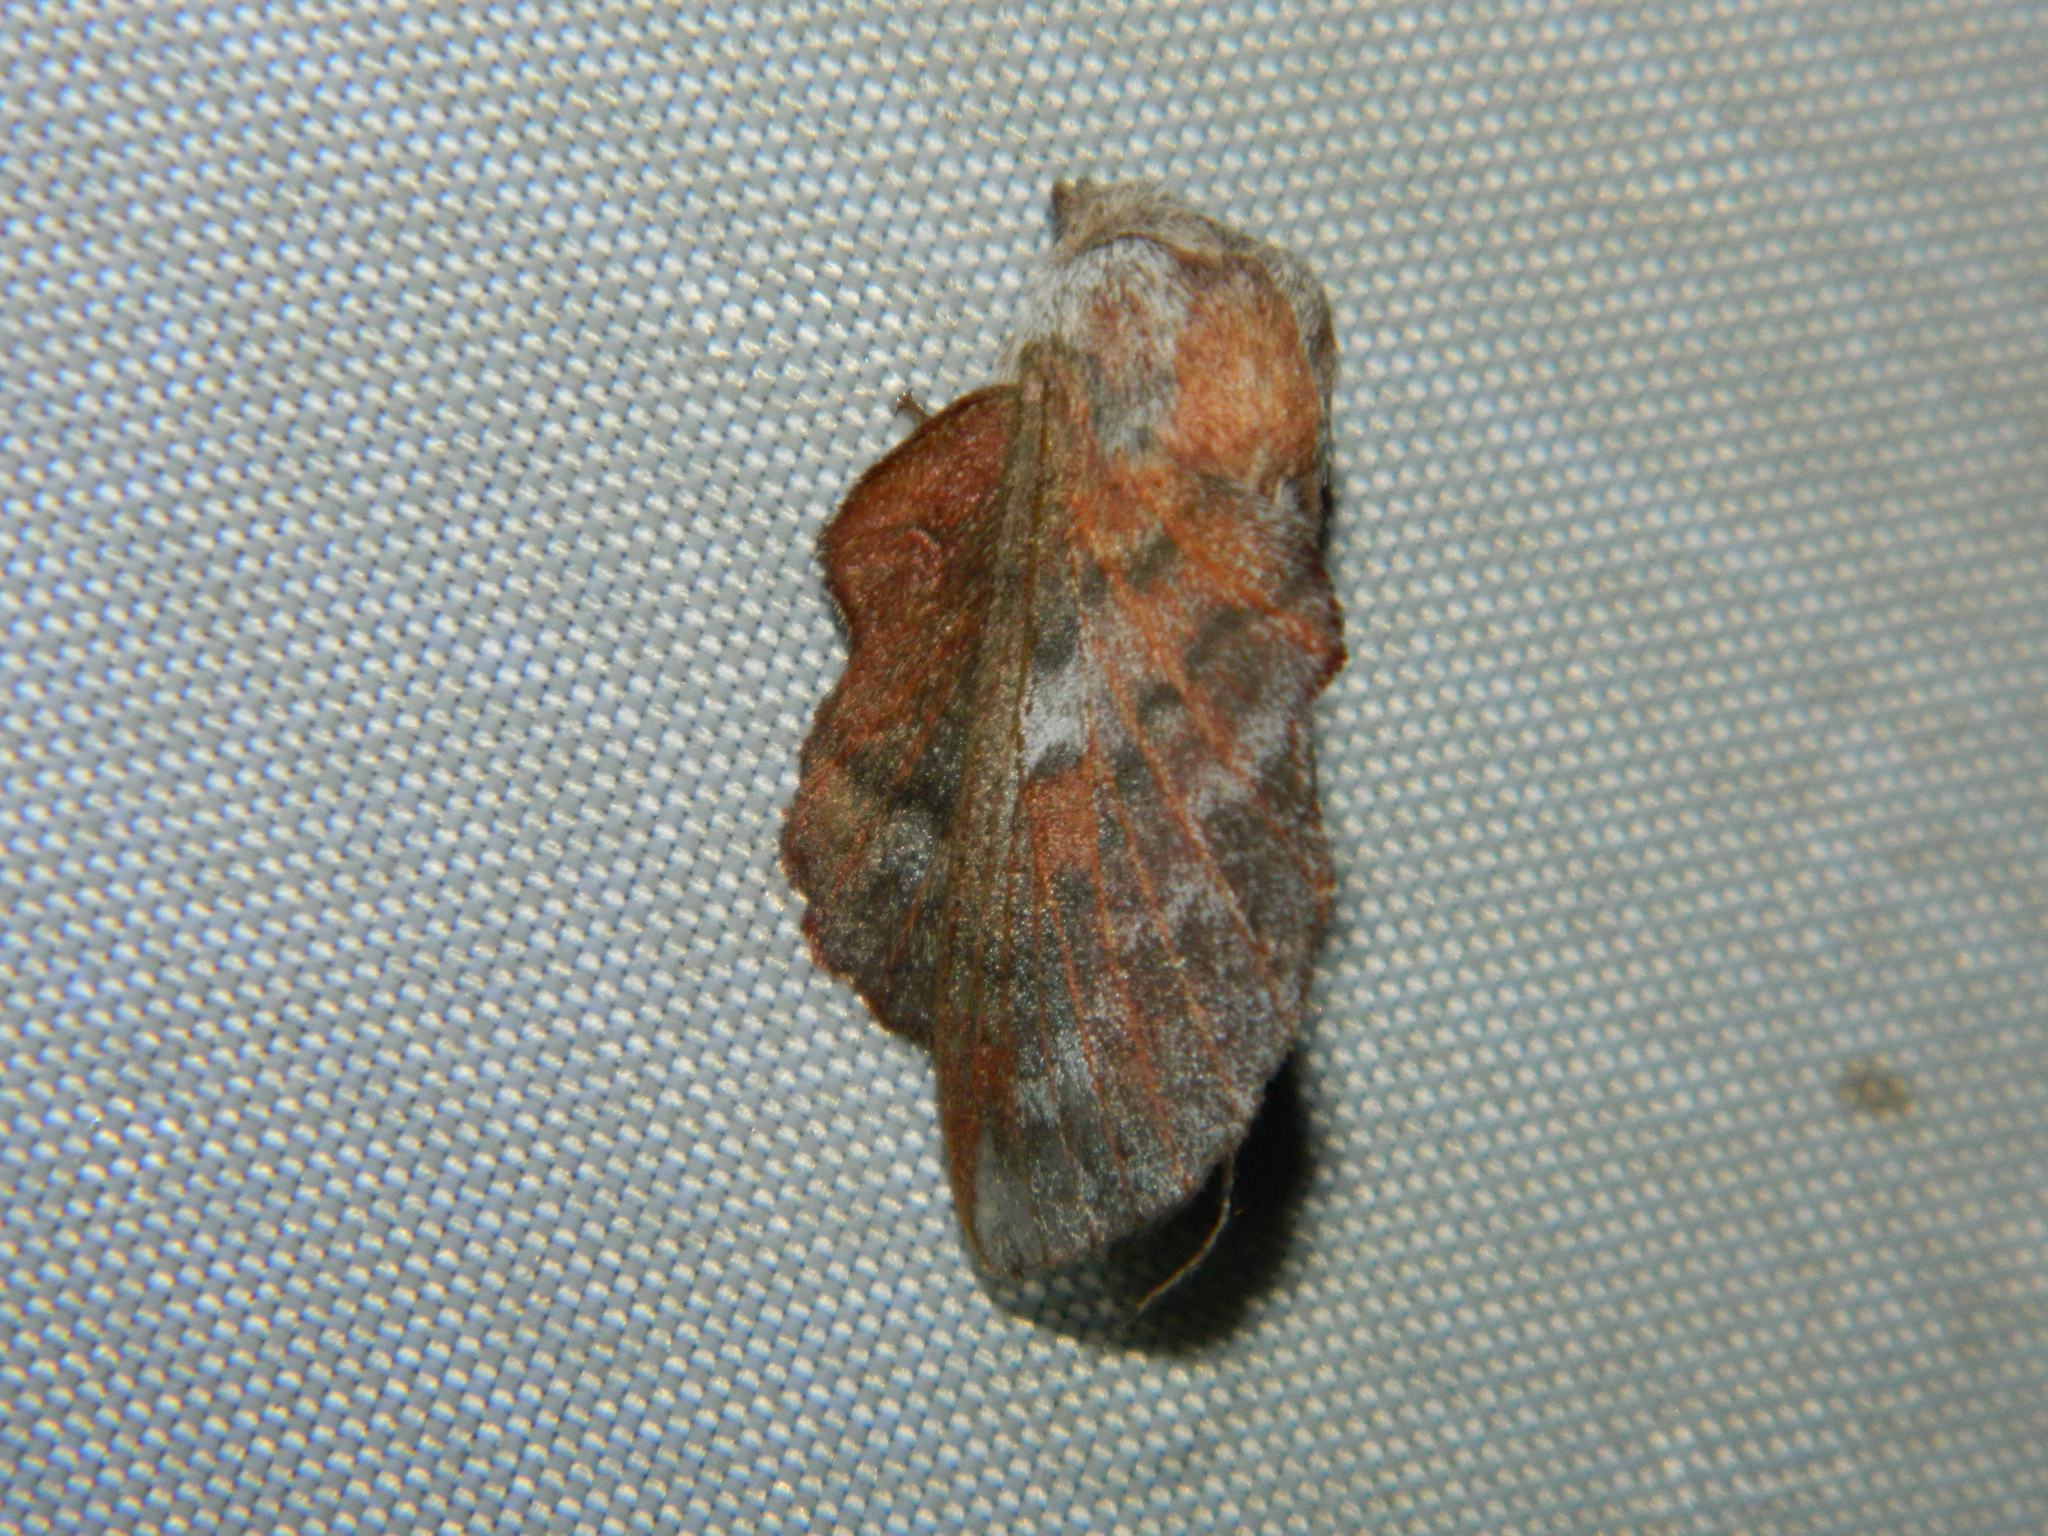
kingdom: Animalia
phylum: Arthropoda
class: Insecta
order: Lepidoptera
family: Lasiocampidae
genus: Phyllodesma
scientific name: Phyllodesma americana
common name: American lappet moth
